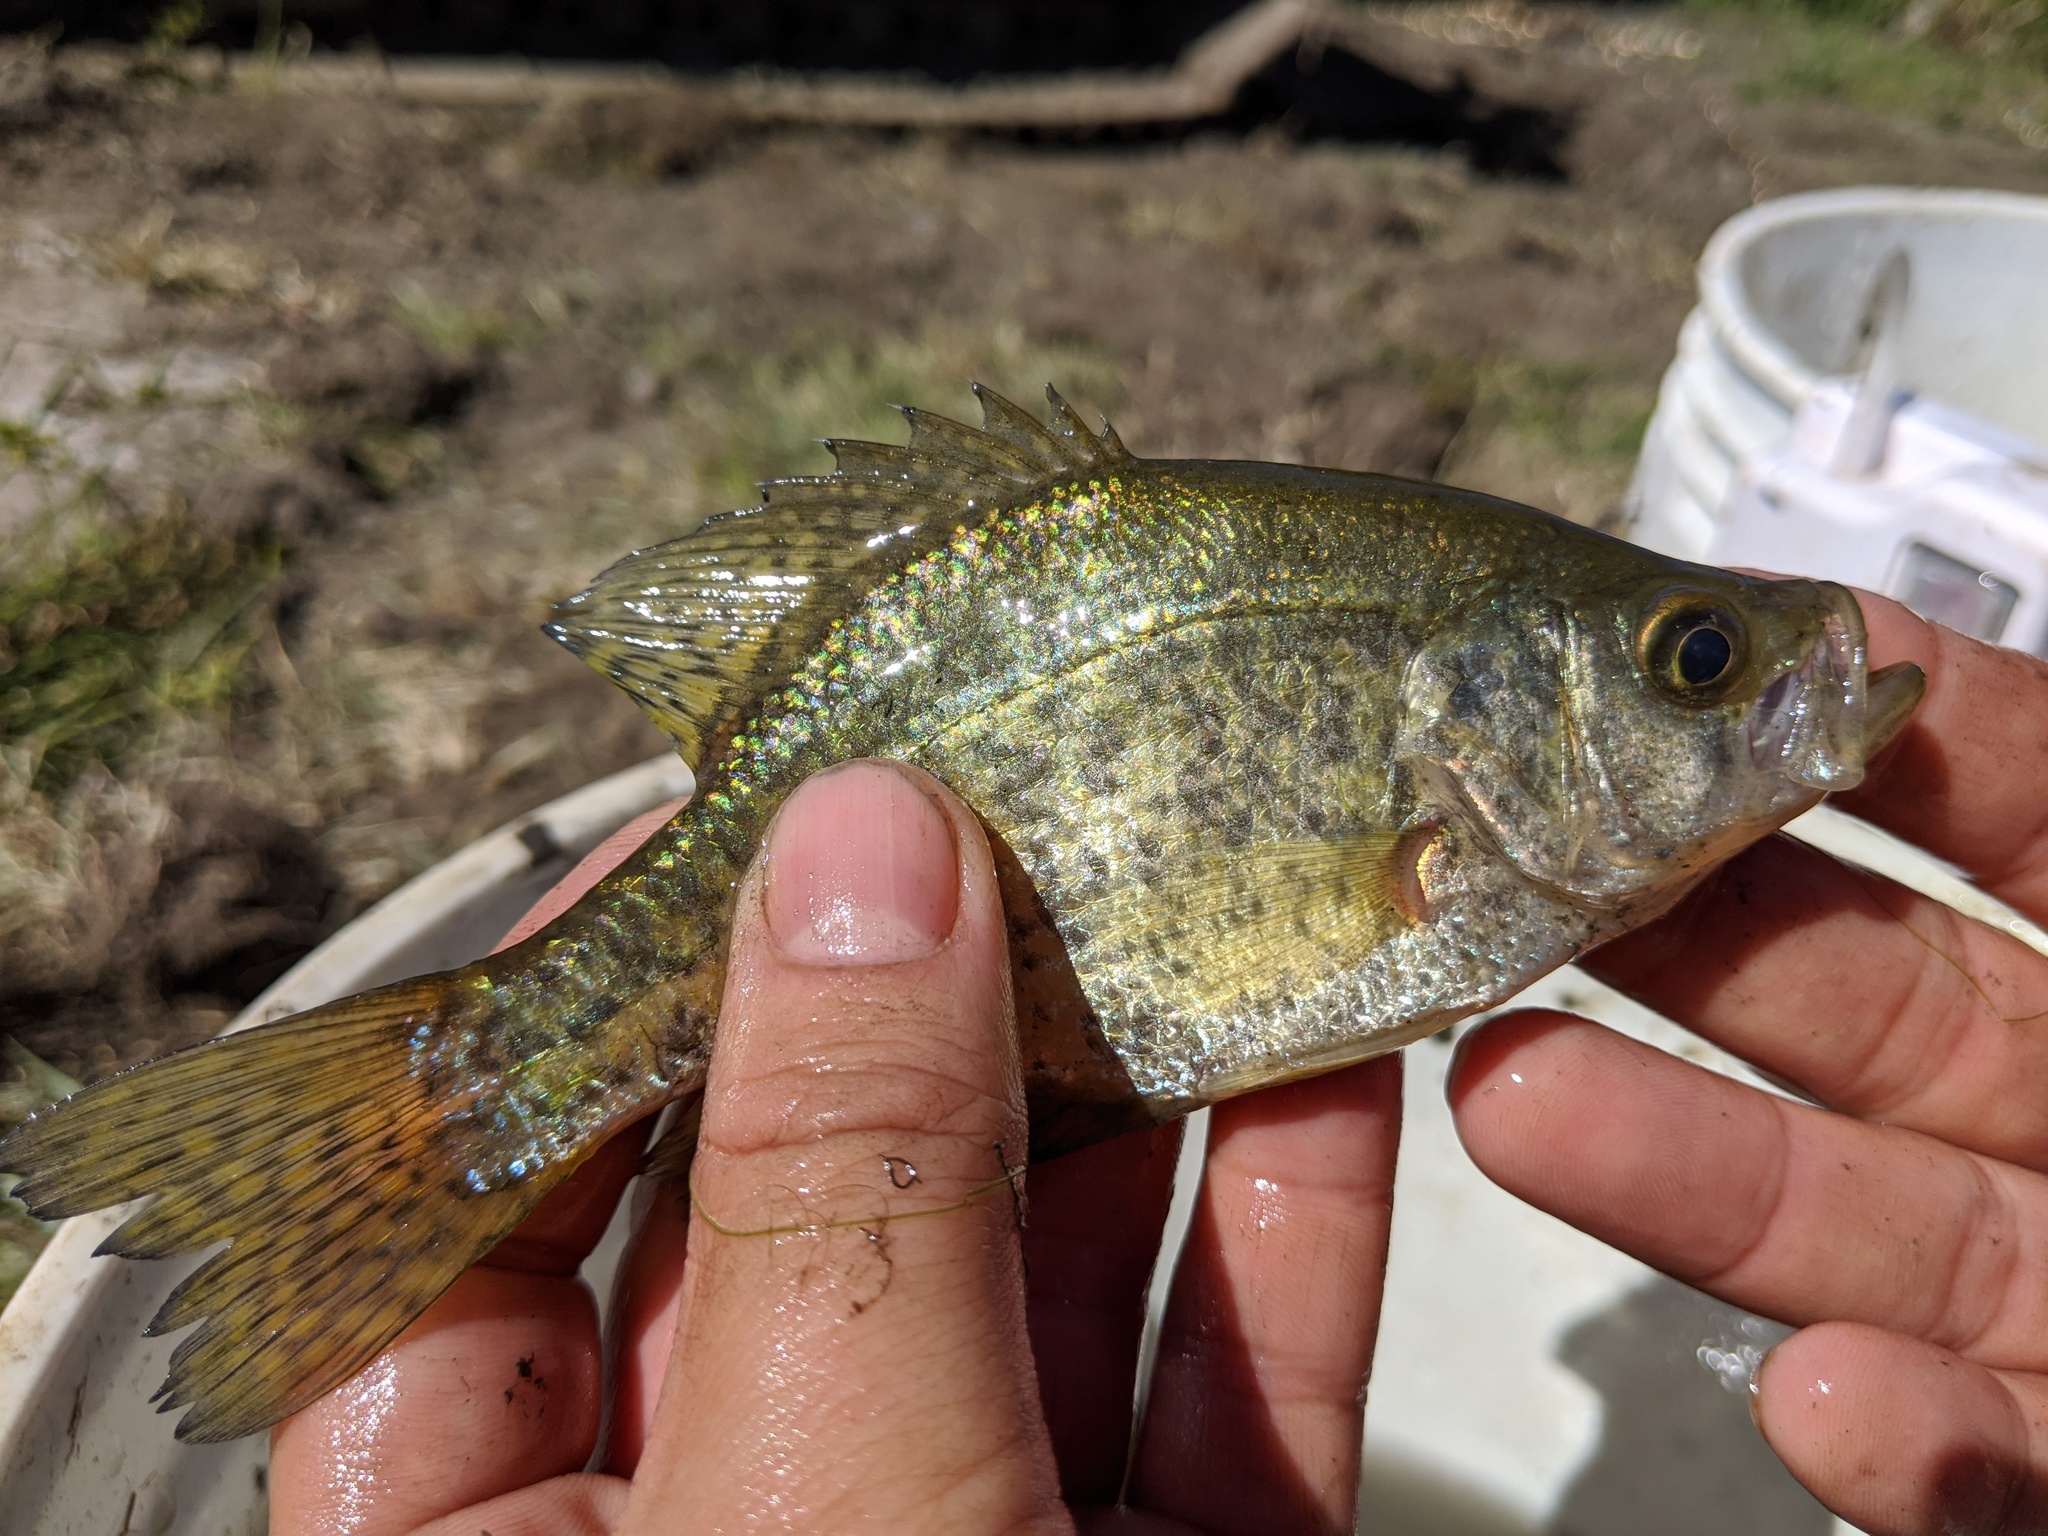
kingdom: Animalia
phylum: Chordata
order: Perciformes
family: Centrarchidae
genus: Pomoxis
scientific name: Pomoxis nigromaculatus
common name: Black crappie
